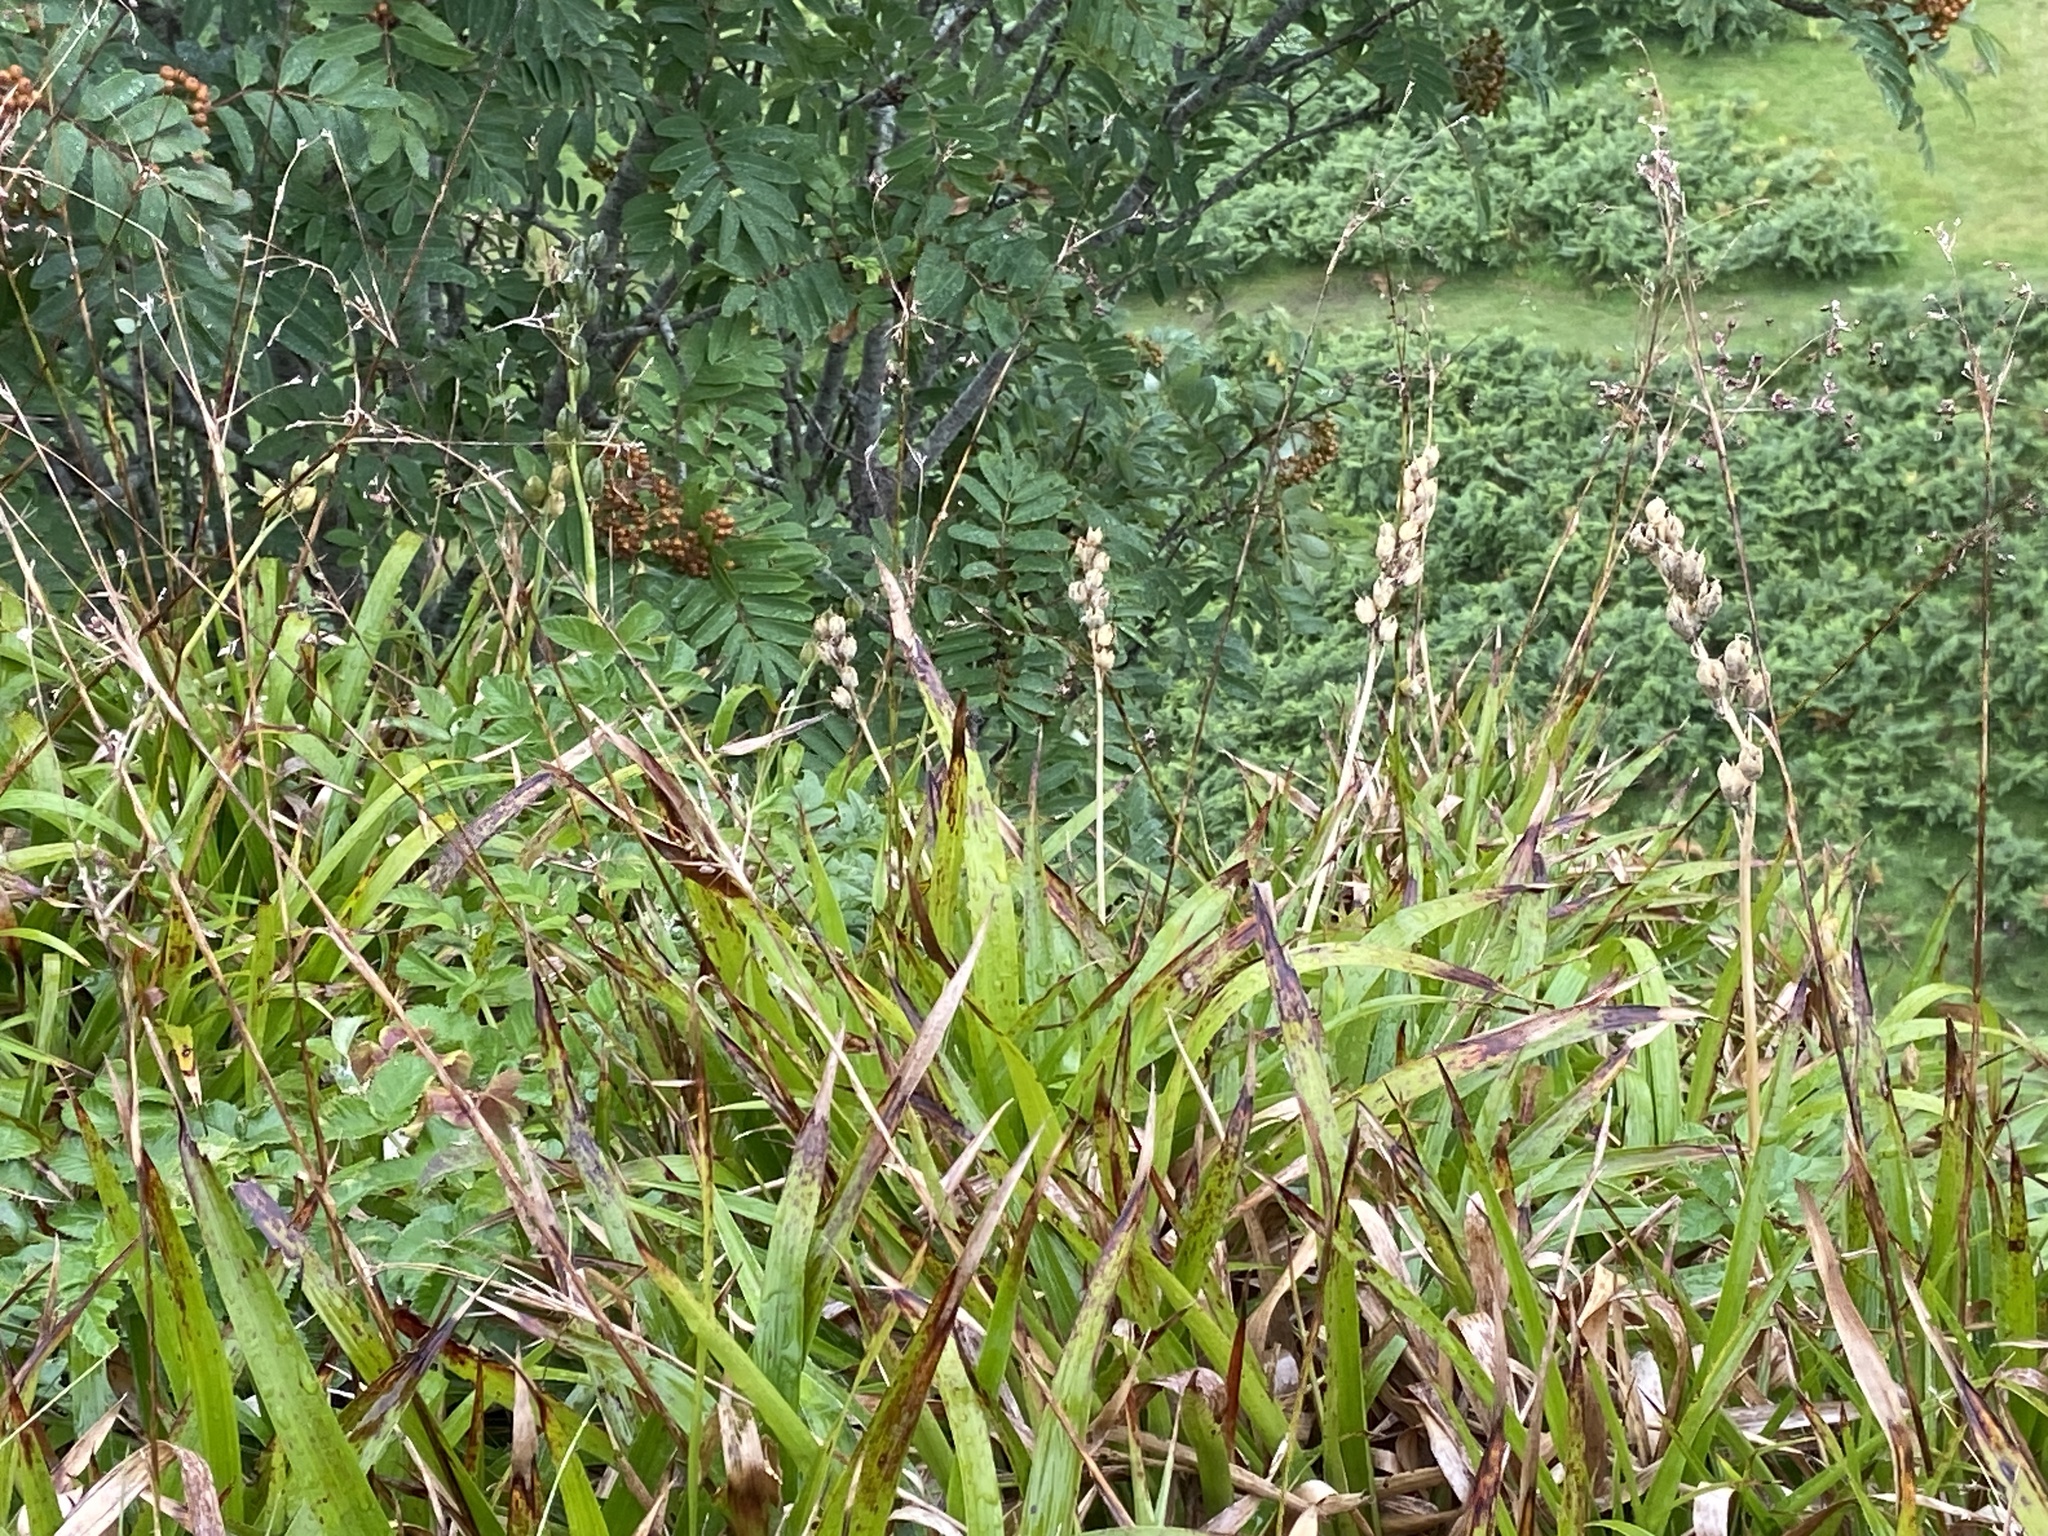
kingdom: Plantae
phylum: Tracheophyta
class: Liliopsida
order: Poales
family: Juncaceae
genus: Luzula
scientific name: Luzula sylvatica
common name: Great wood-rush
